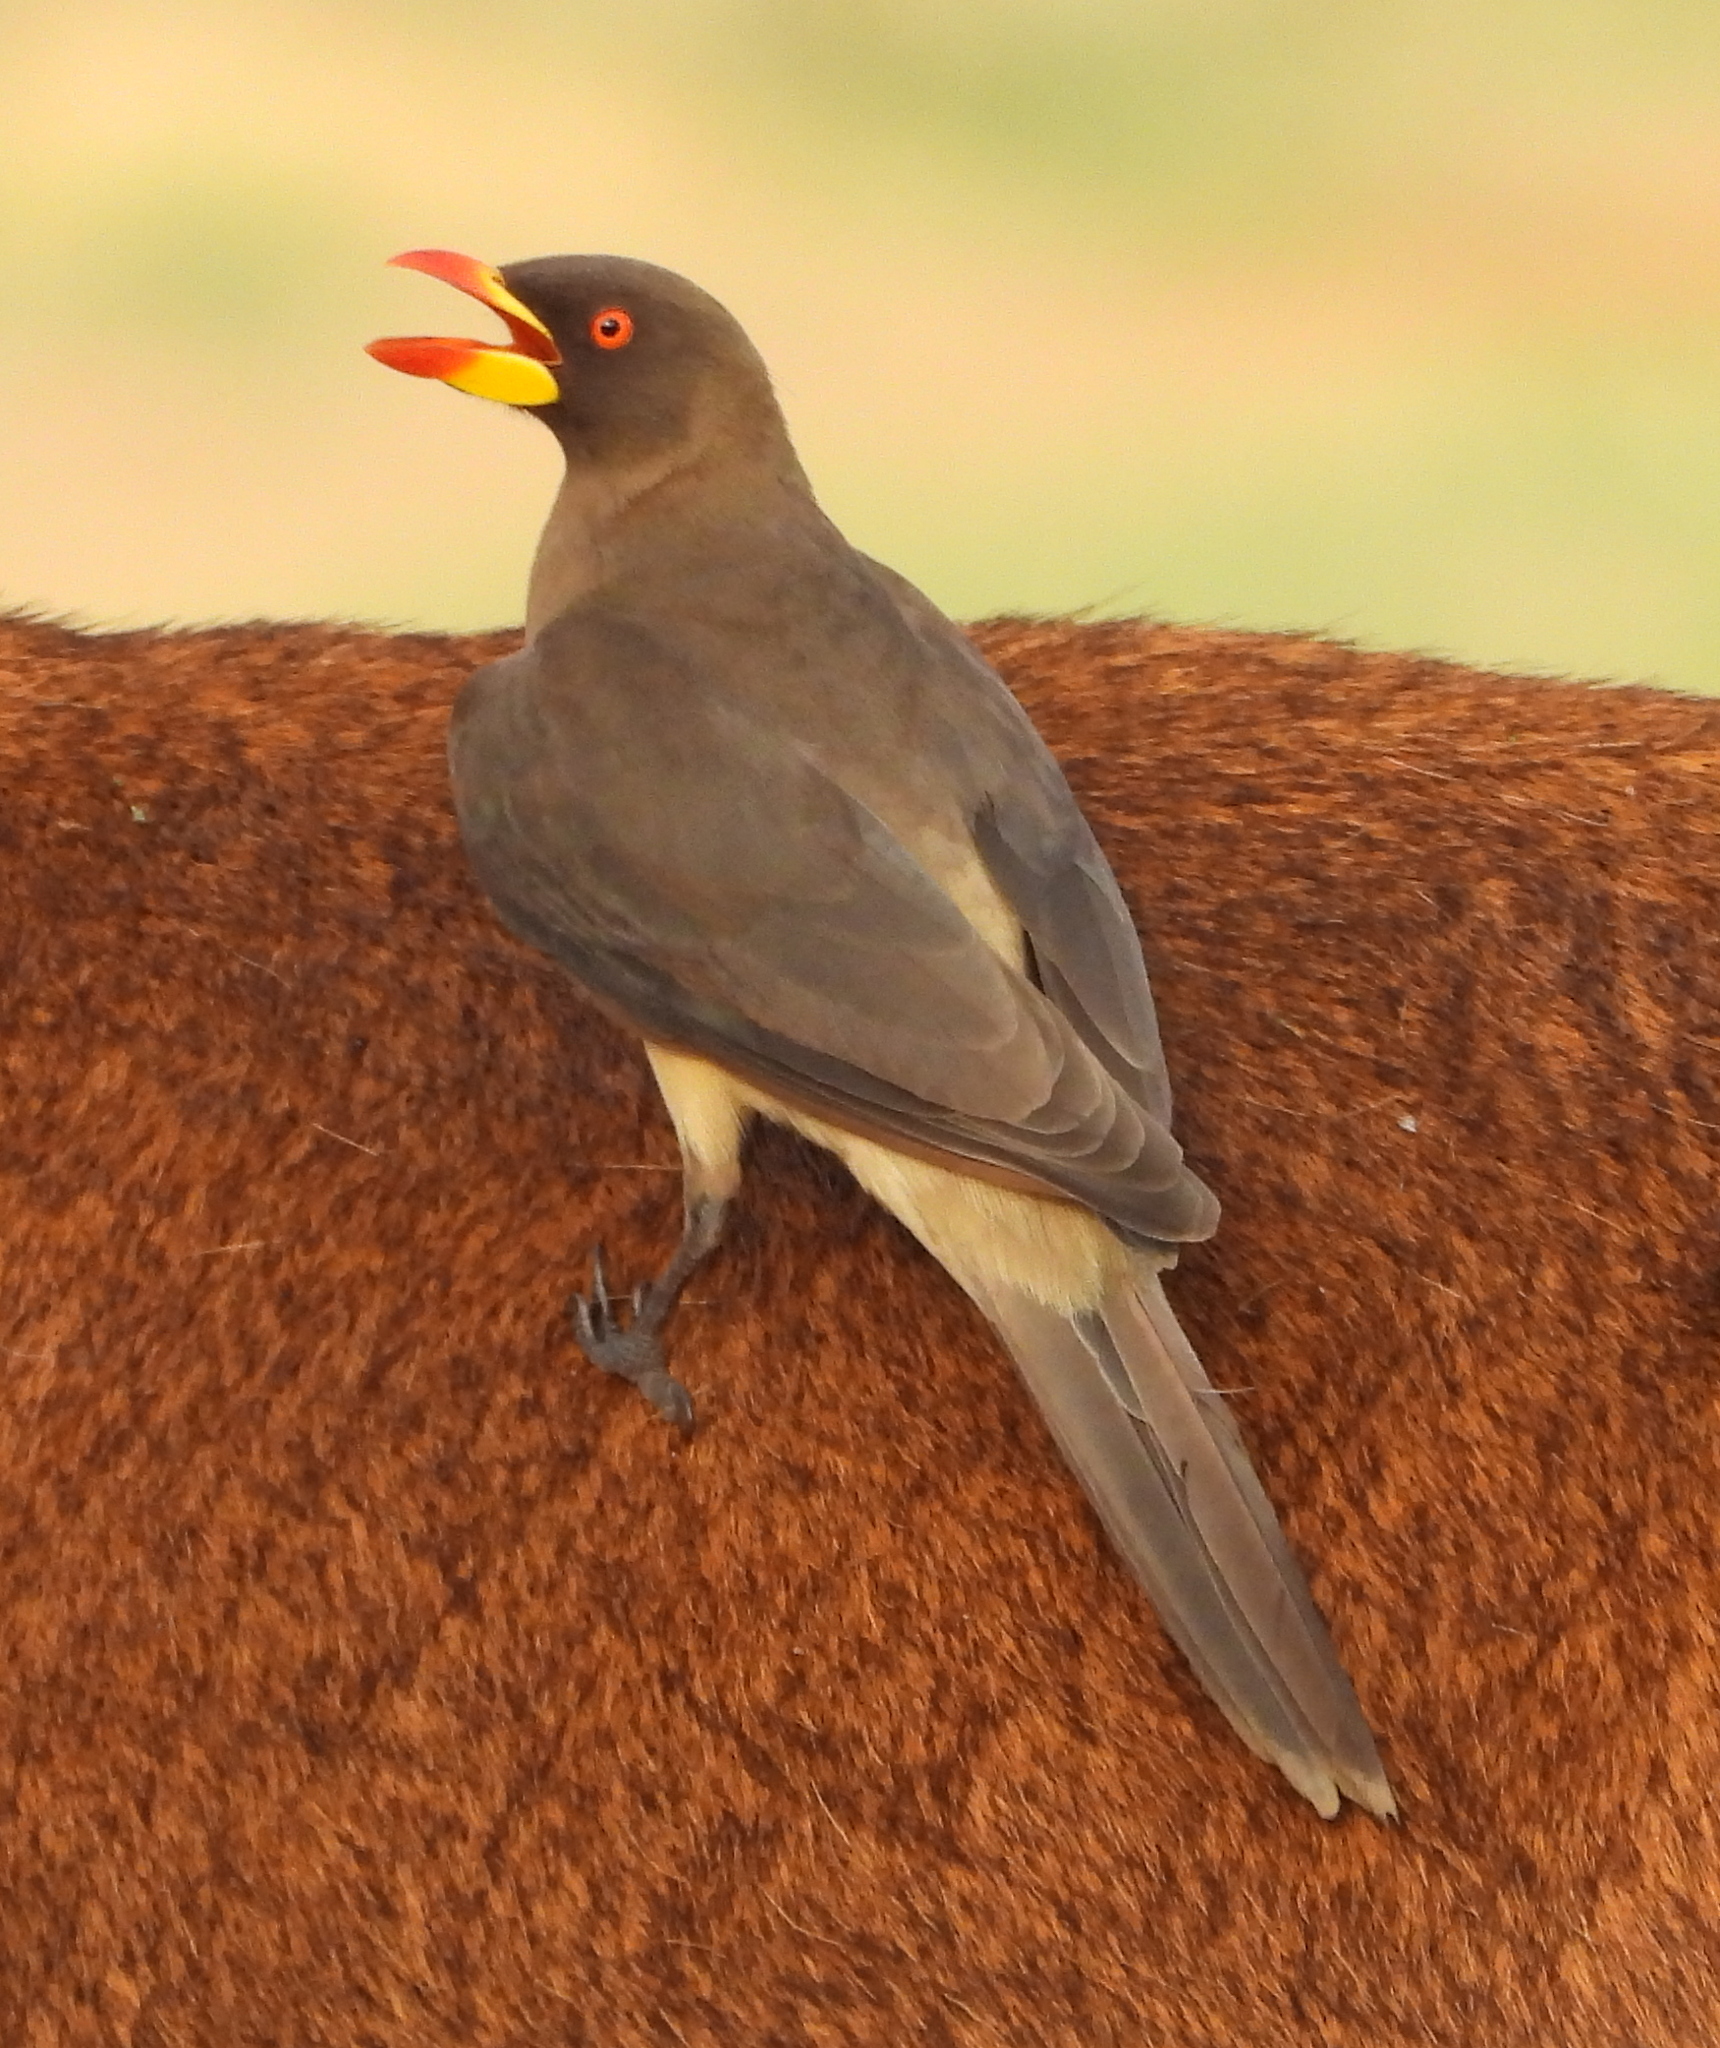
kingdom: Animalia
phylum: Chordata
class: Aves
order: Passeriformes
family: Buphagidae
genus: Buphagus
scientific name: Buphagus africanus
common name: Yellow-billed oxpecker
